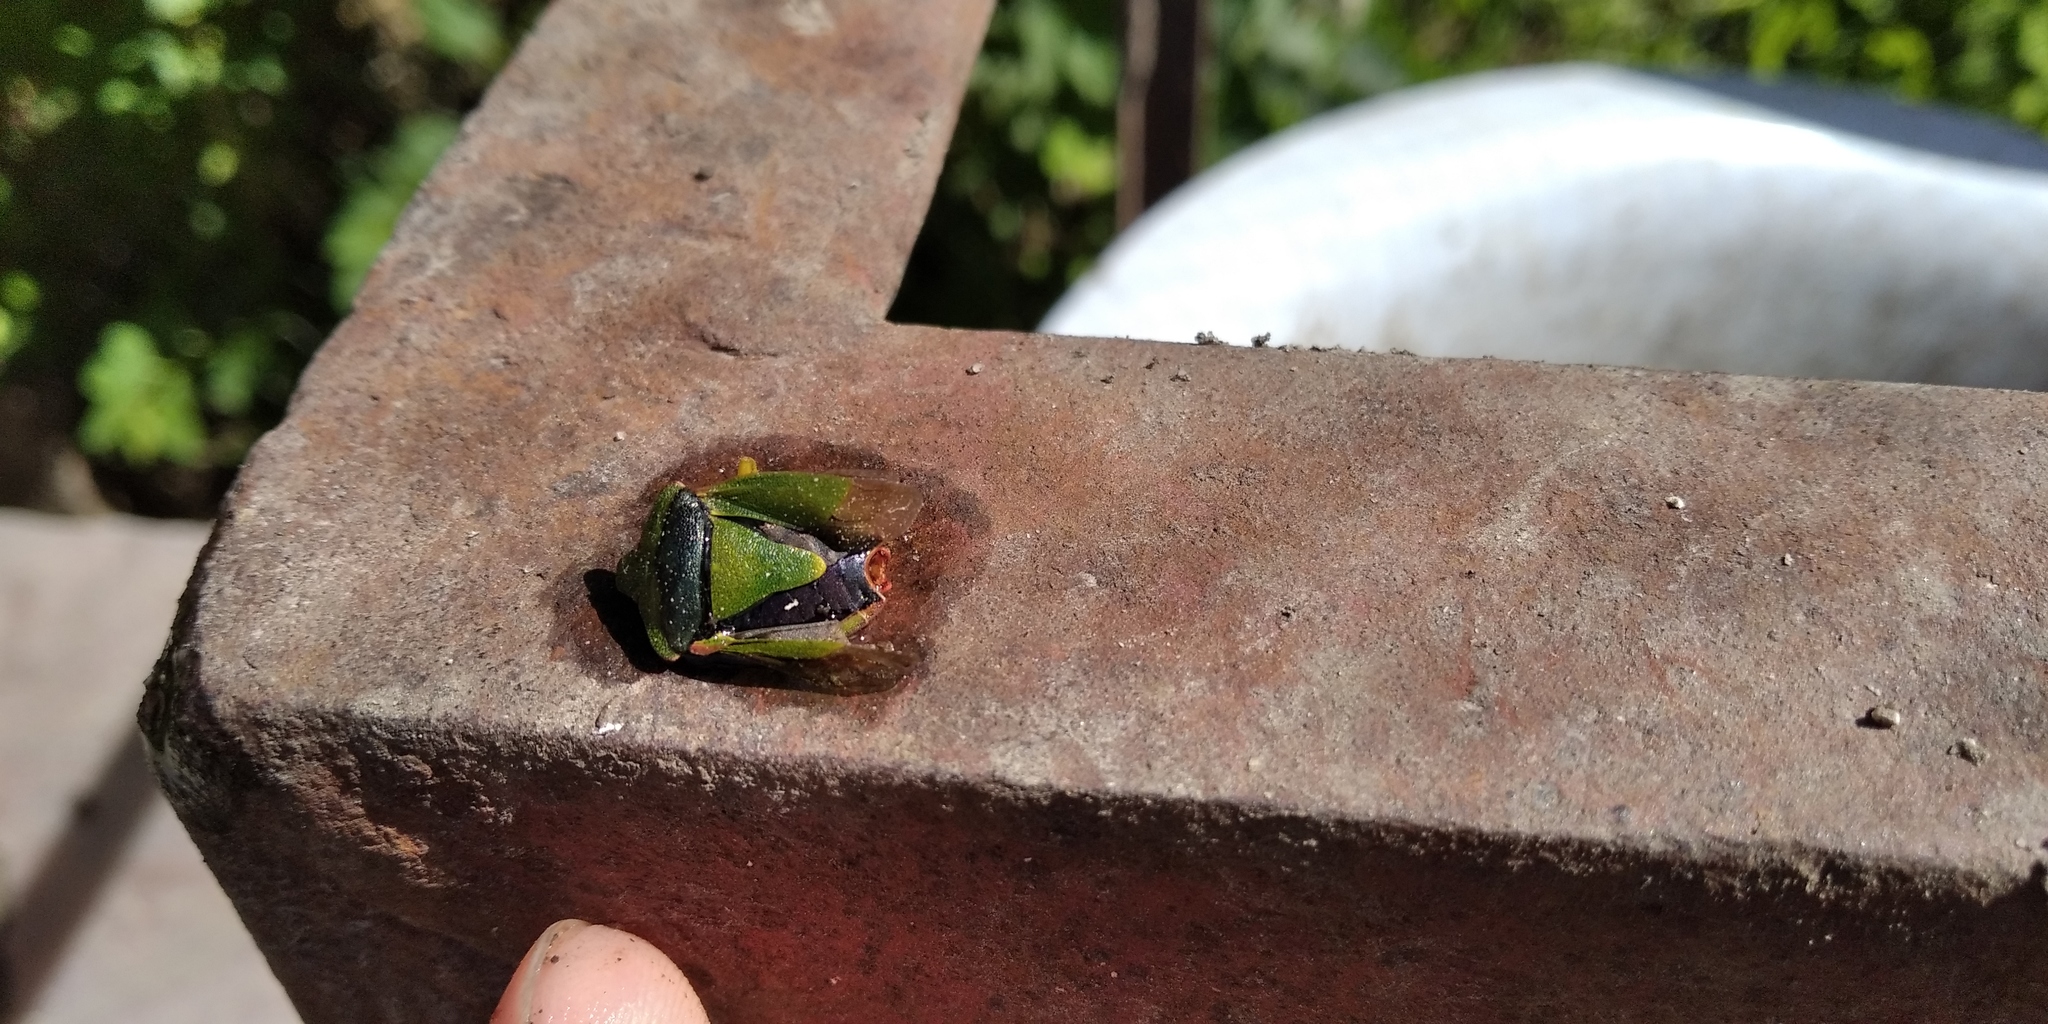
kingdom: Animalia
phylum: Arthropoda
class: Insecta
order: Hemiptera
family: Pentatomidae
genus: Palomena
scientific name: Palomena prasina
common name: Green shieldbug
